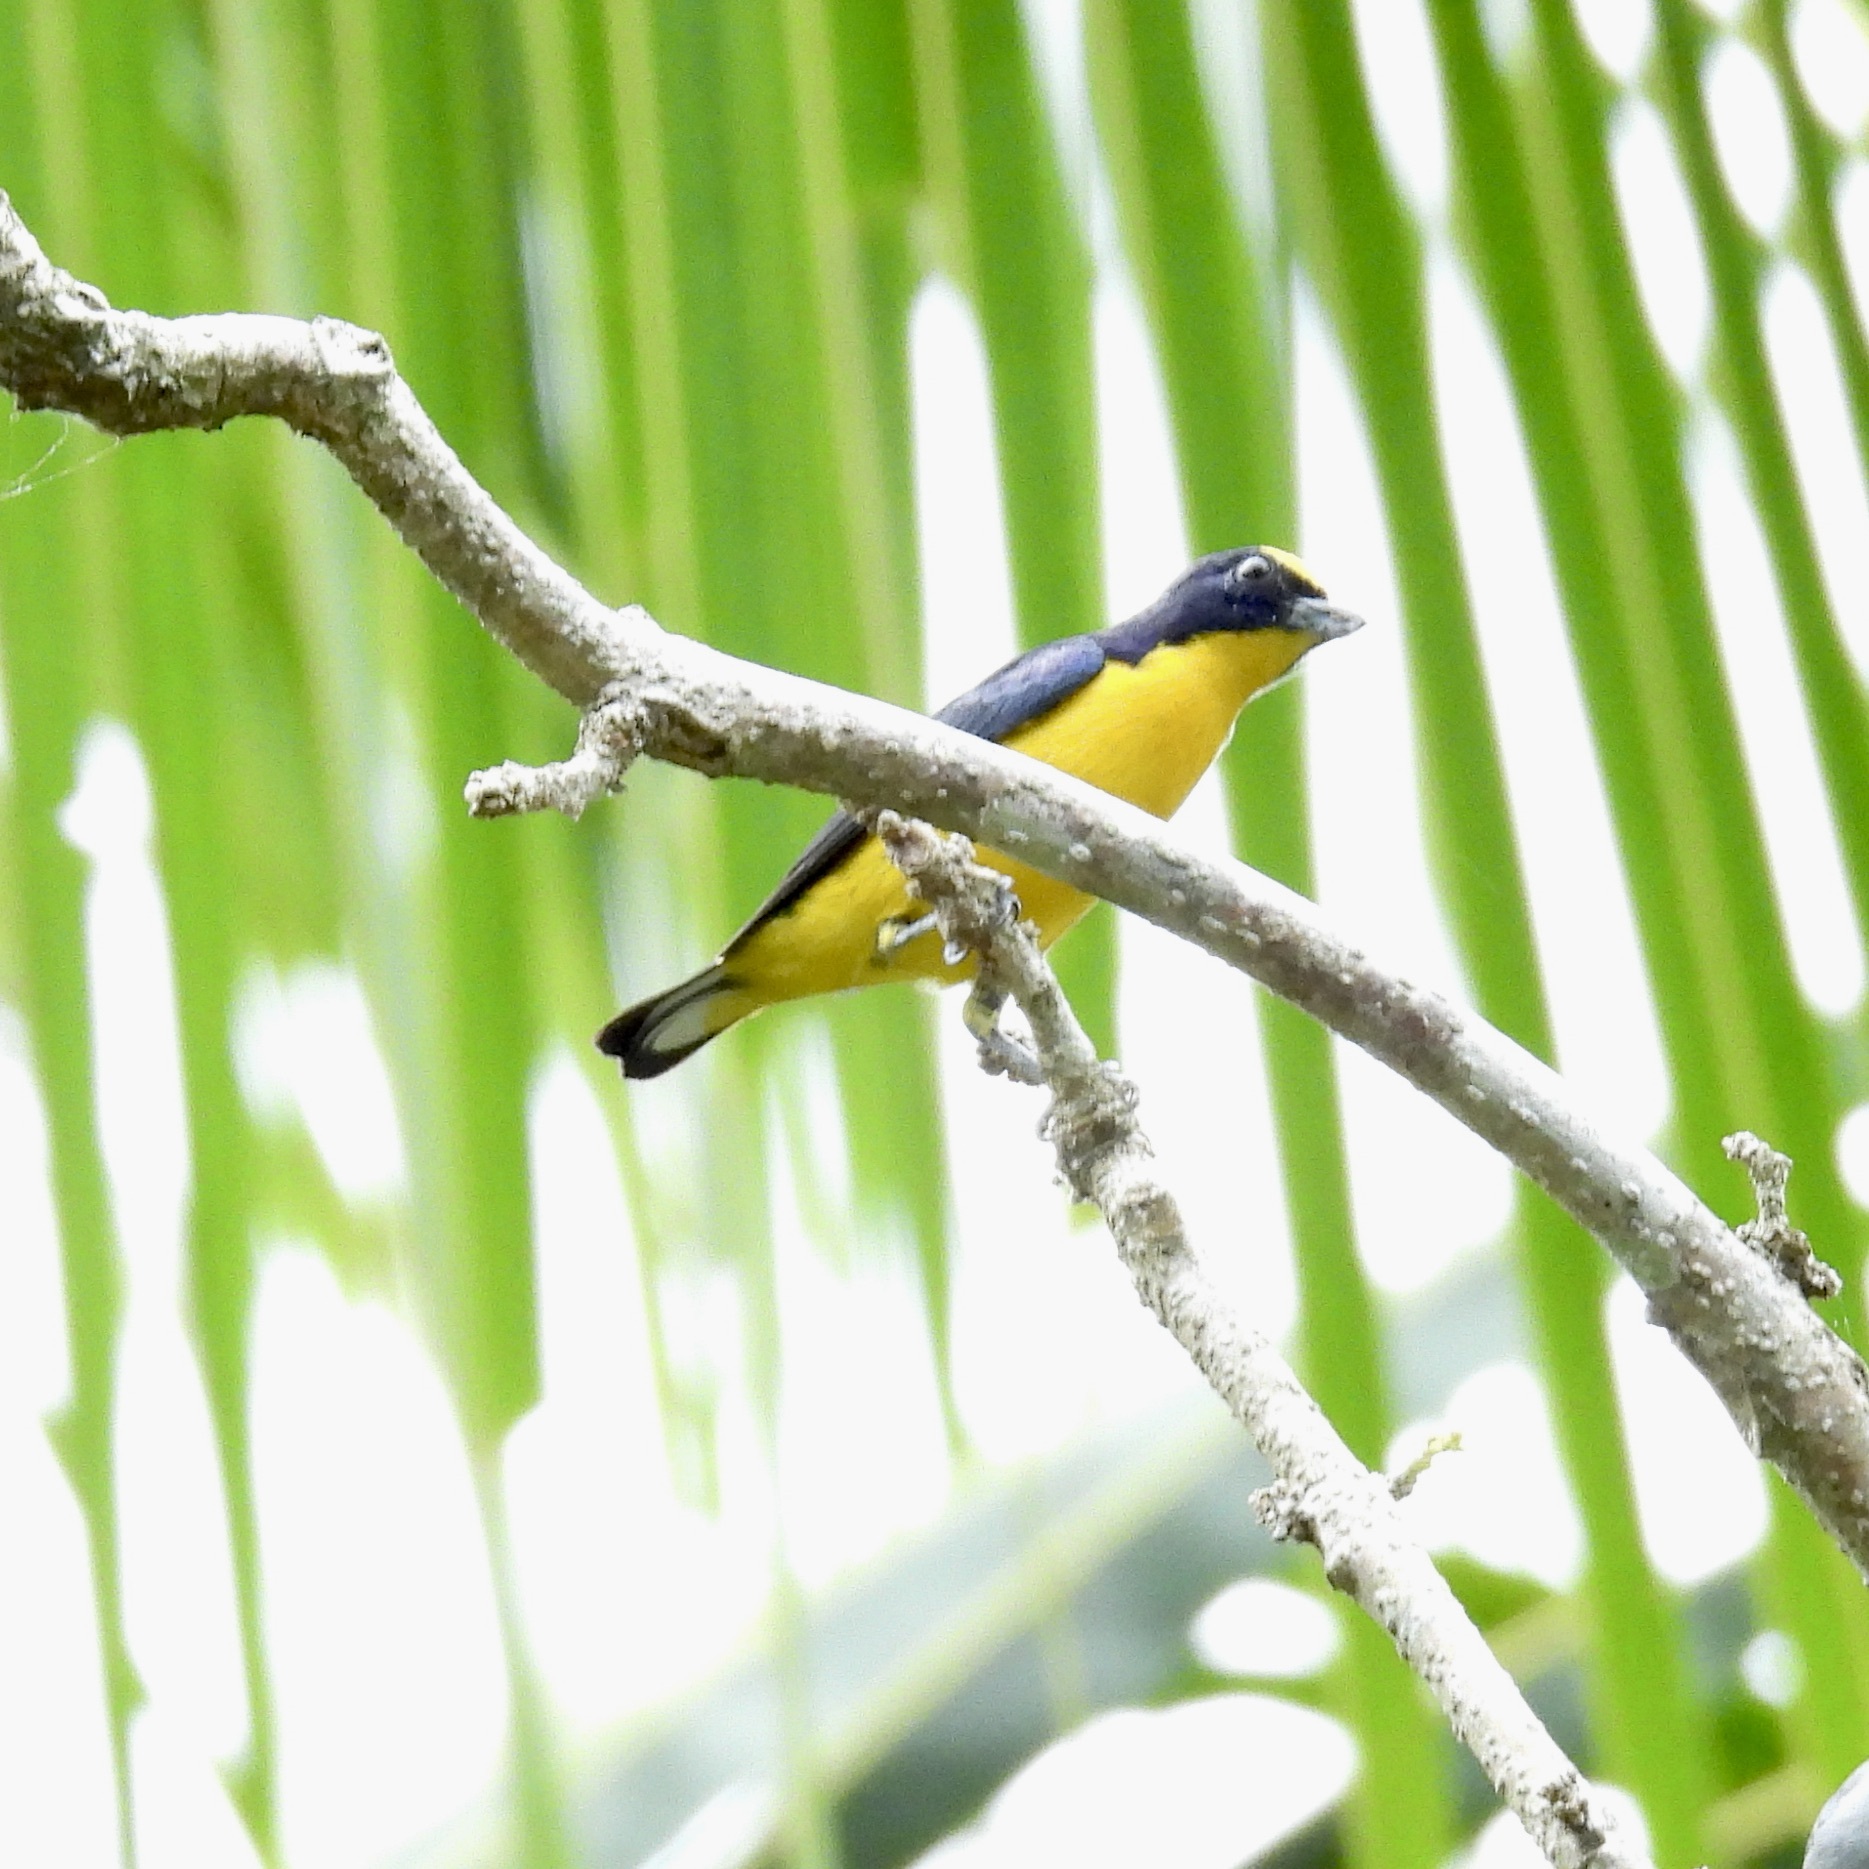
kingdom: Animalia
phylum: Chordata
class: Aves
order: Passeriformes
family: Fringillidae
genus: Euphonia
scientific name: Euphonia laniirostris
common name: Thick-billed euphonia
